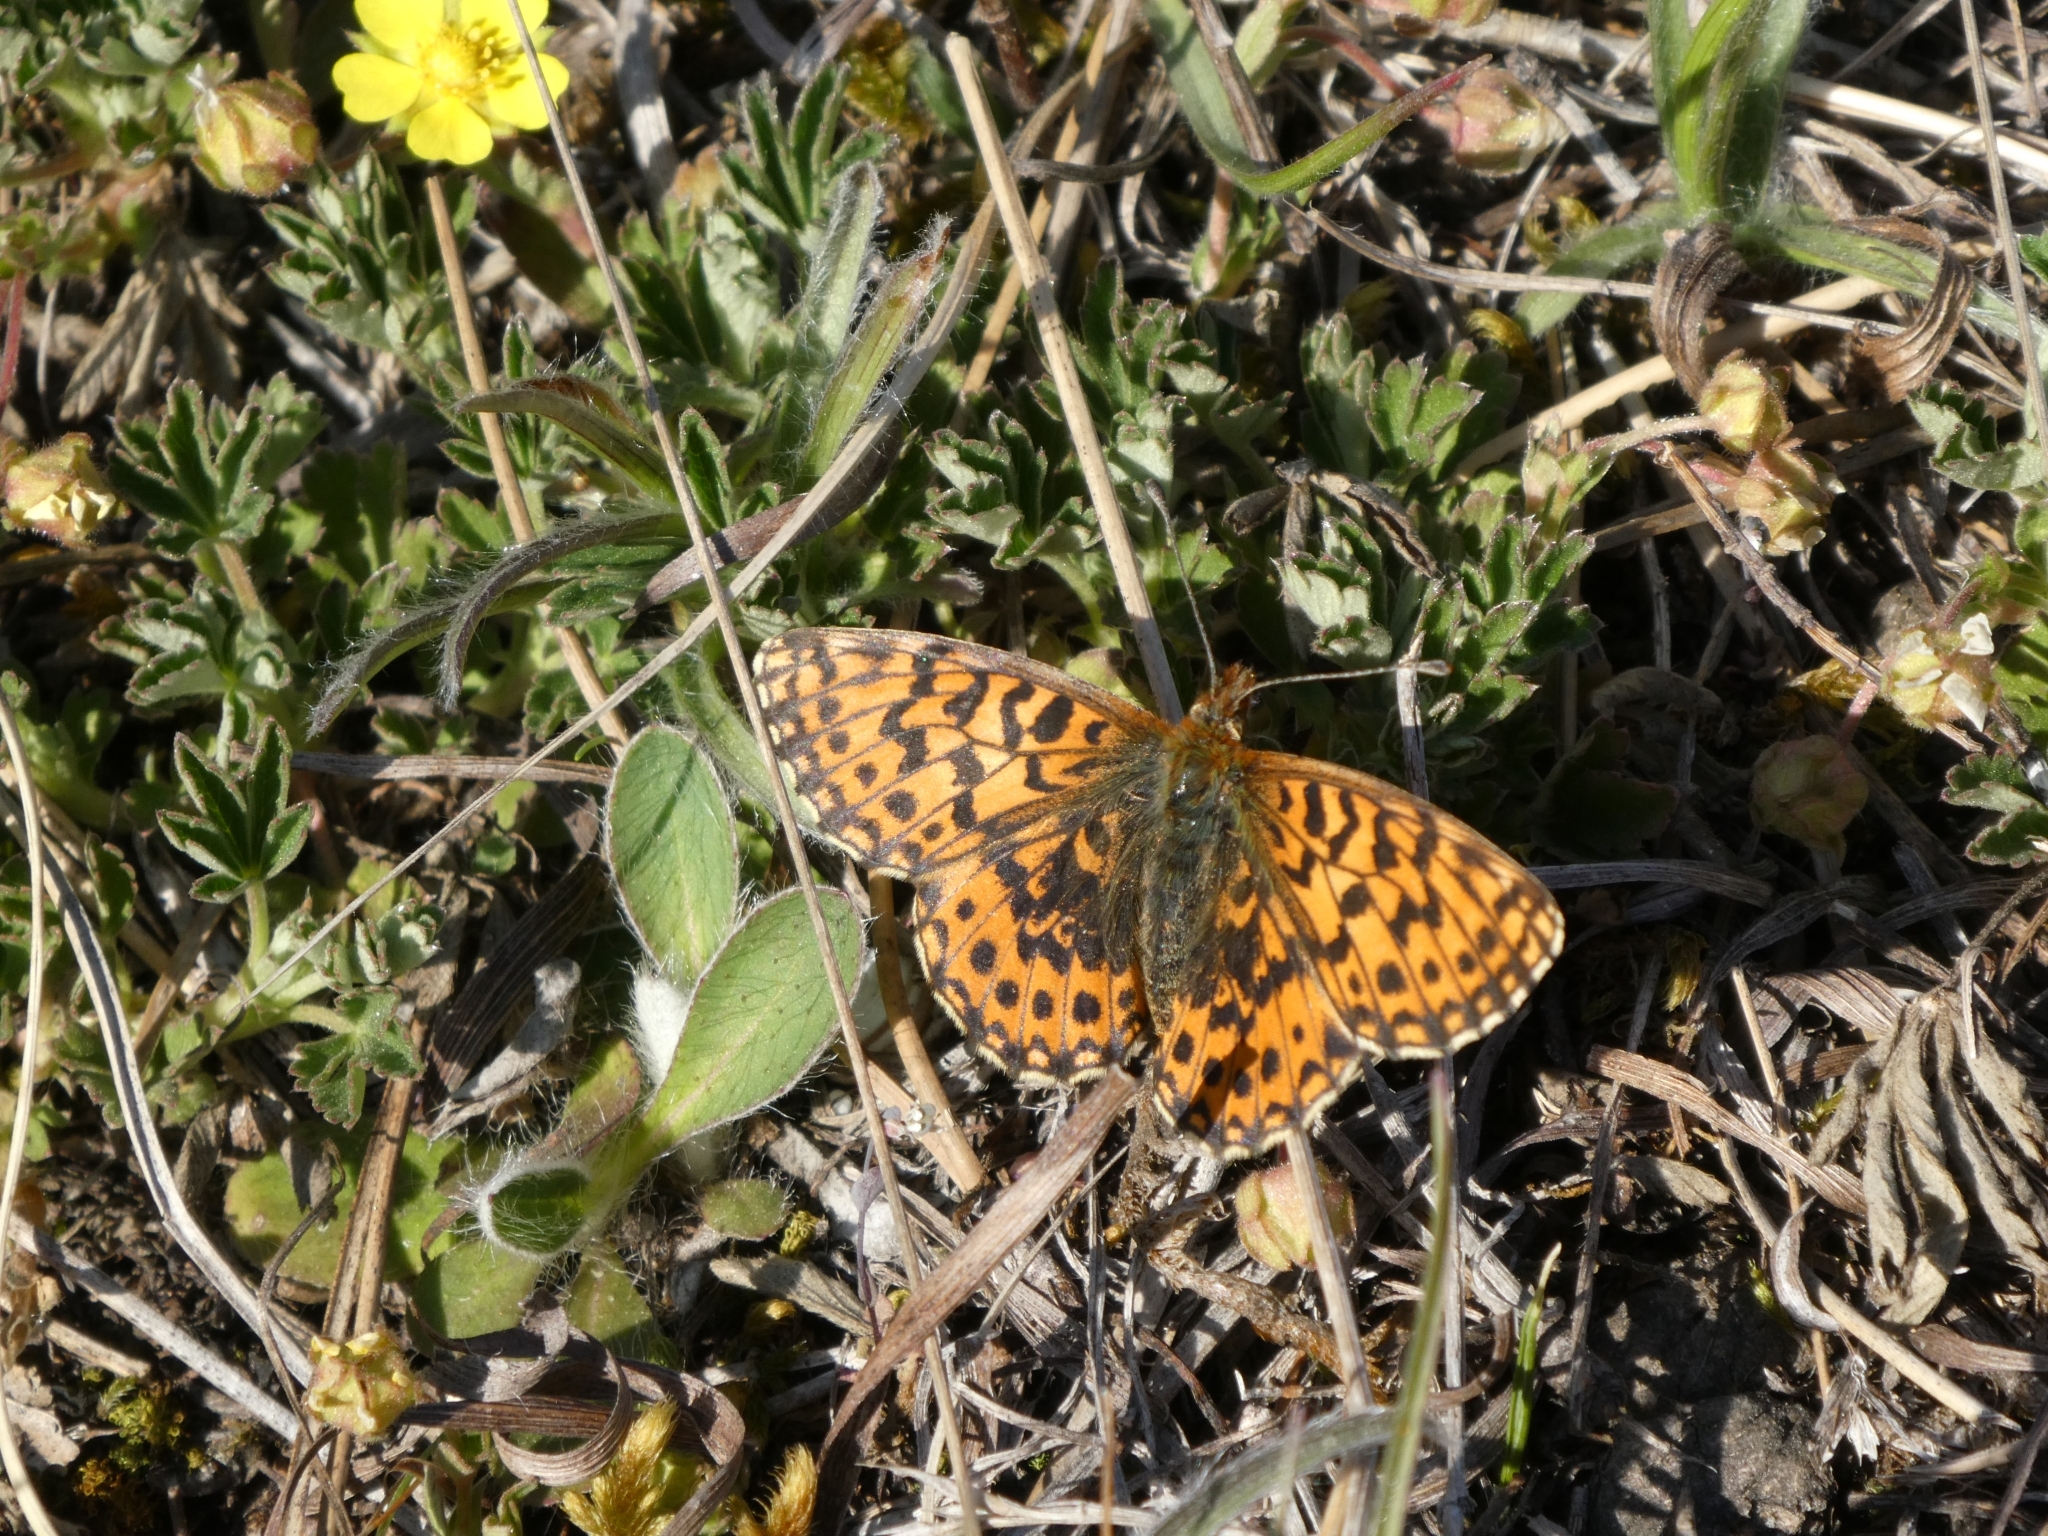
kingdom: Animalia
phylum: Arthropoda
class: Insecta
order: Lepidoptera
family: Nymphalidae
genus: Boloria
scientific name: Boloria dia
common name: Weaver's fritillary
